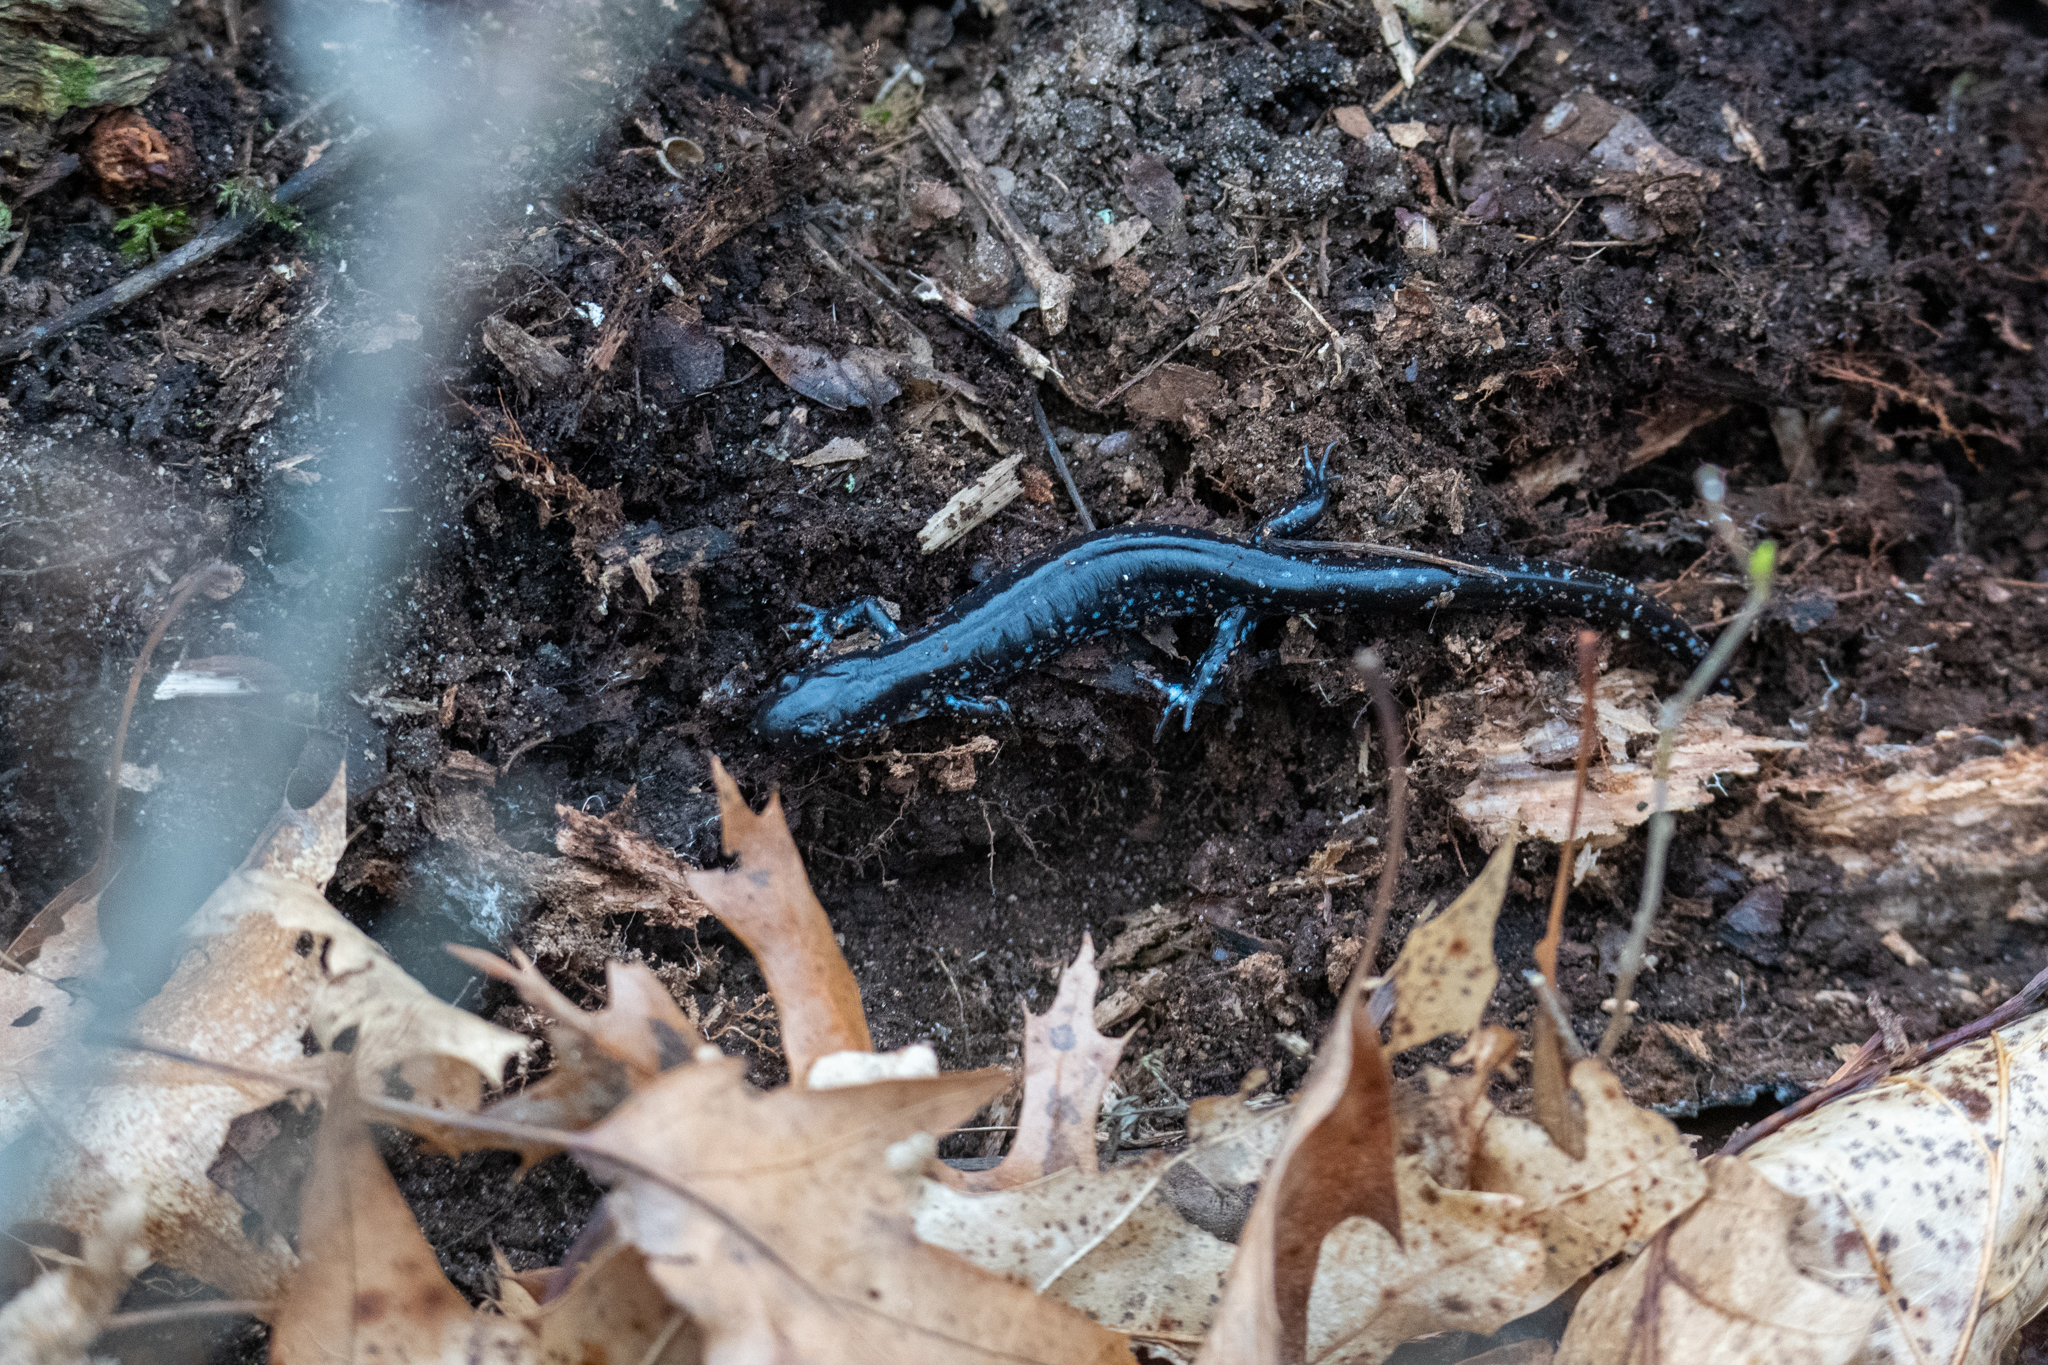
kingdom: Animalia
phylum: Chordata
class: Amphibia
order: Caudata
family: Ambystomatidae
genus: Ambystoma
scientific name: Ambystoma laterale
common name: Blue-spotted salamander
